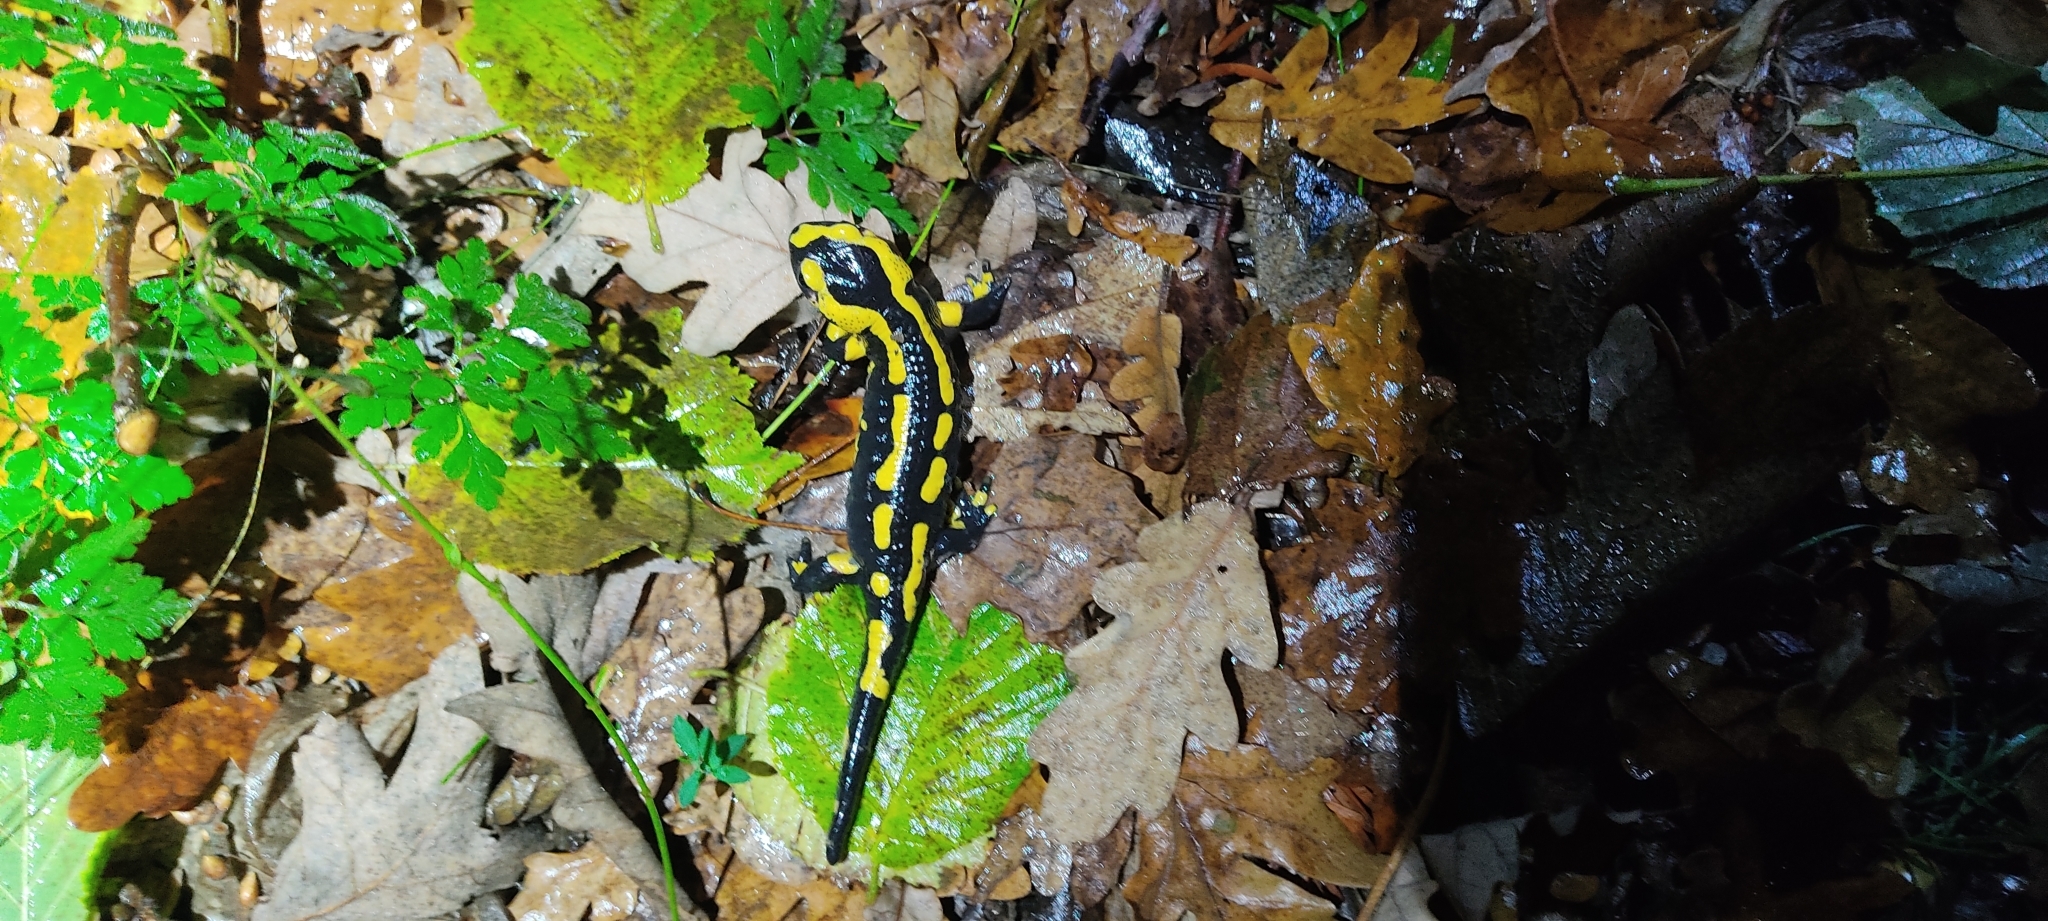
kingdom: Animalia
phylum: Chordata
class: Amphibia
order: Caudata
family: Salamandridae
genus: Salamandra
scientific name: Salamandra salamandra
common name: Fire salamander
